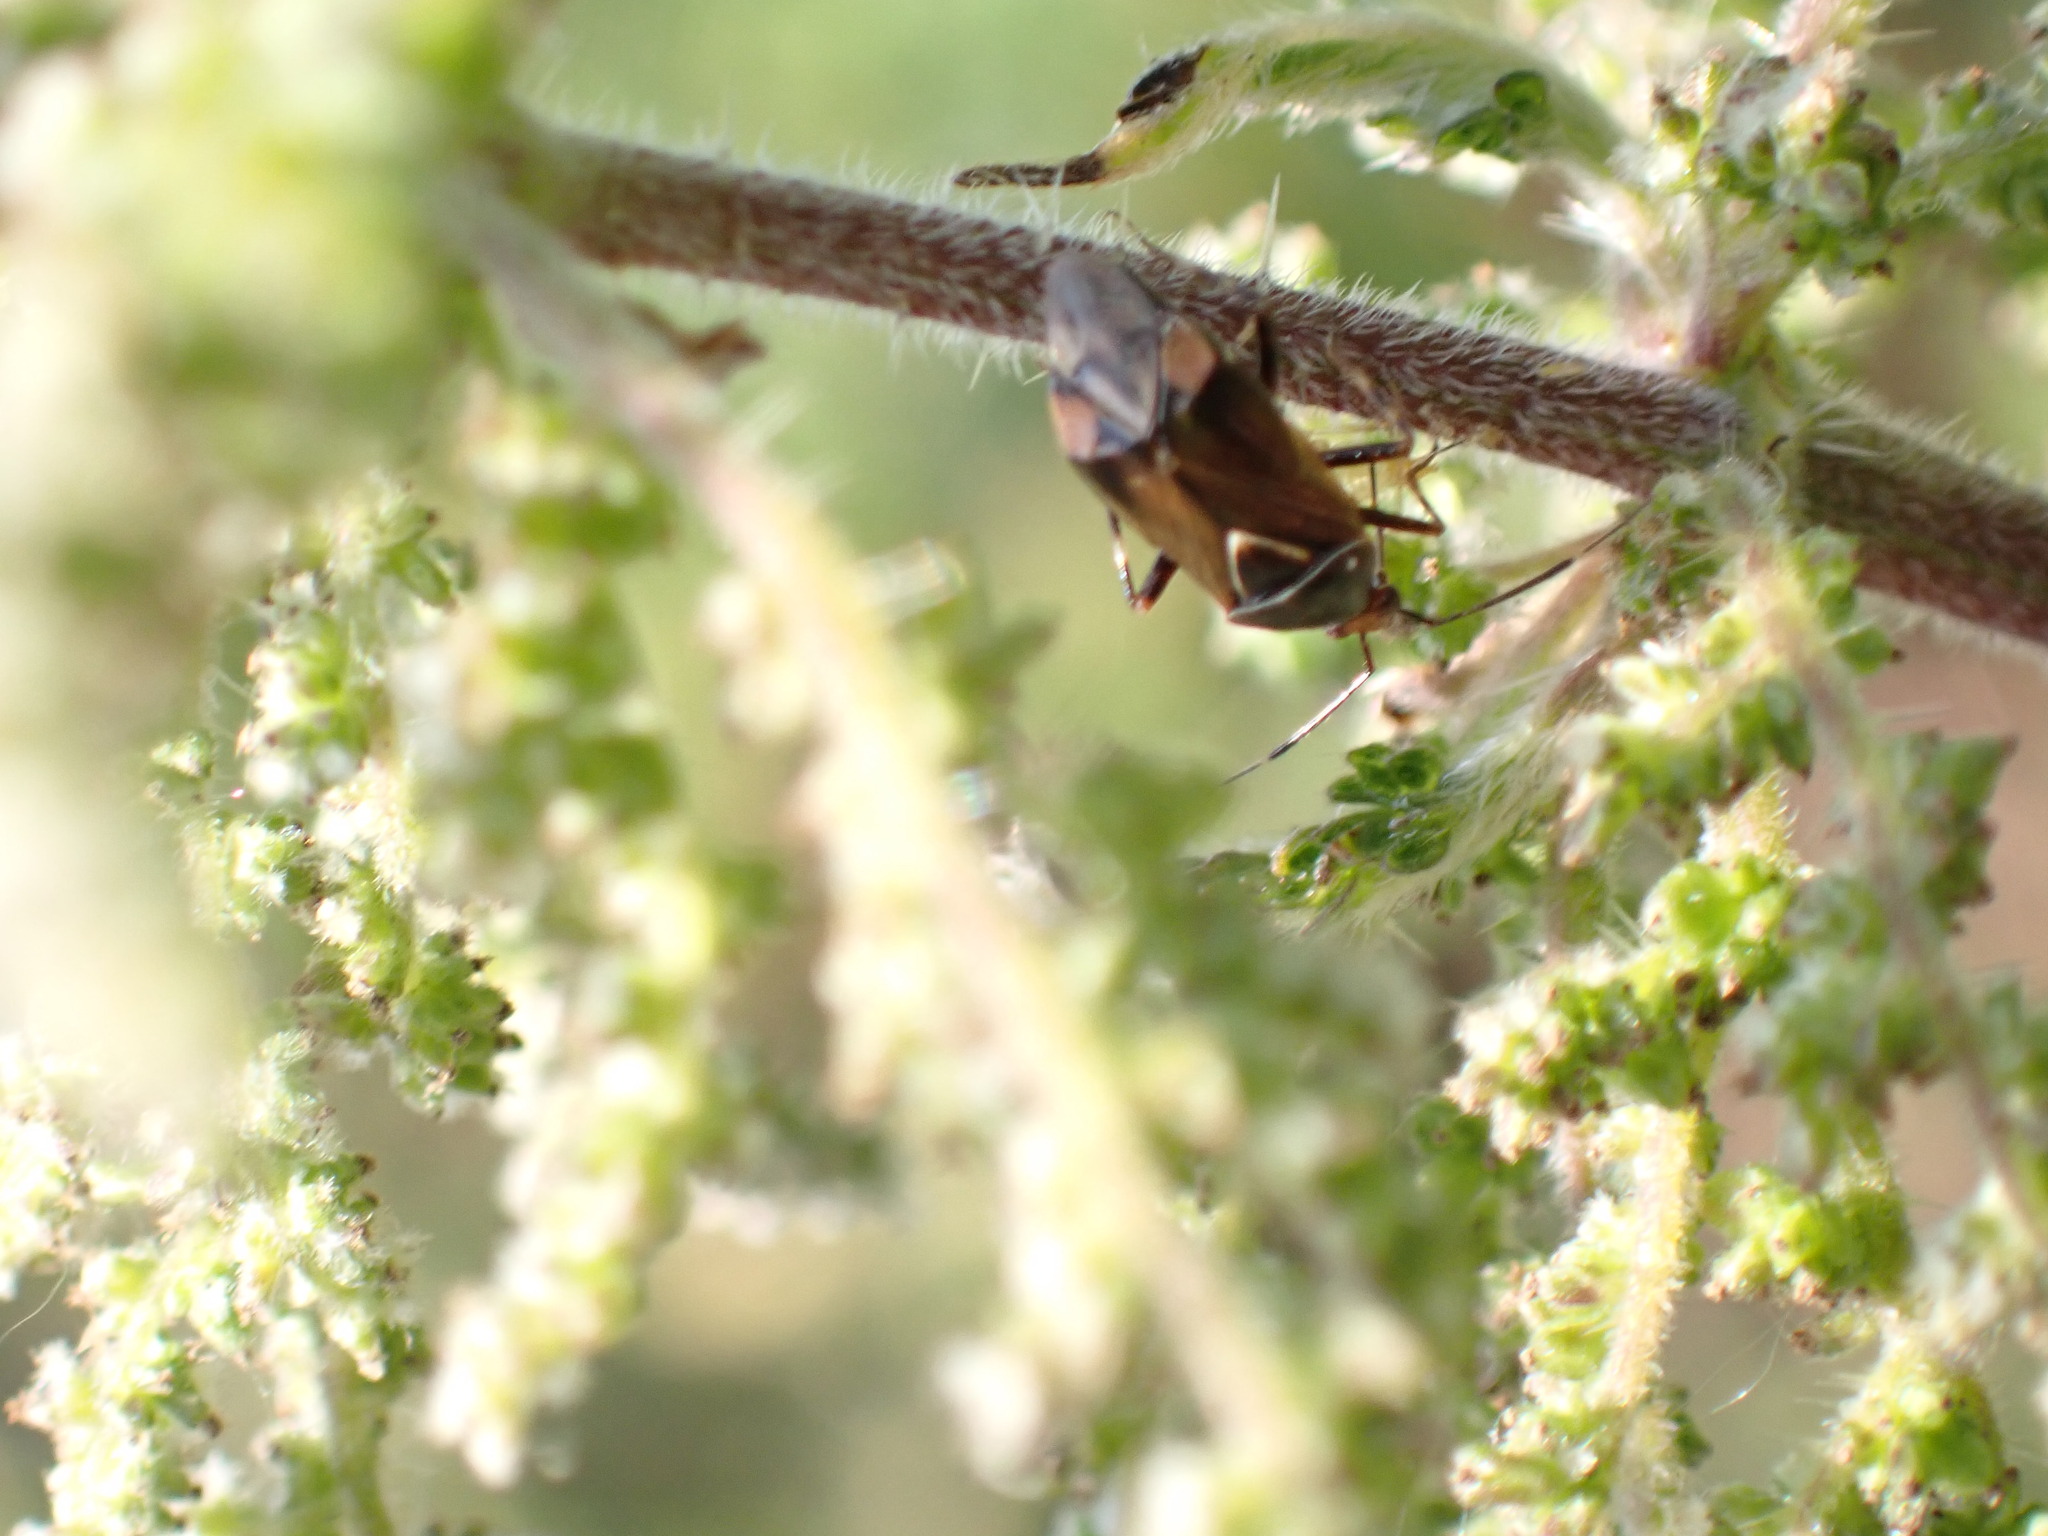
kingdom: Animalia
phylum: Arthropoda
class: Insecta
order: Hemiptera
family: Miridae
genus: Deraeocoris
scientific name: Deraeocoris flavilinea
